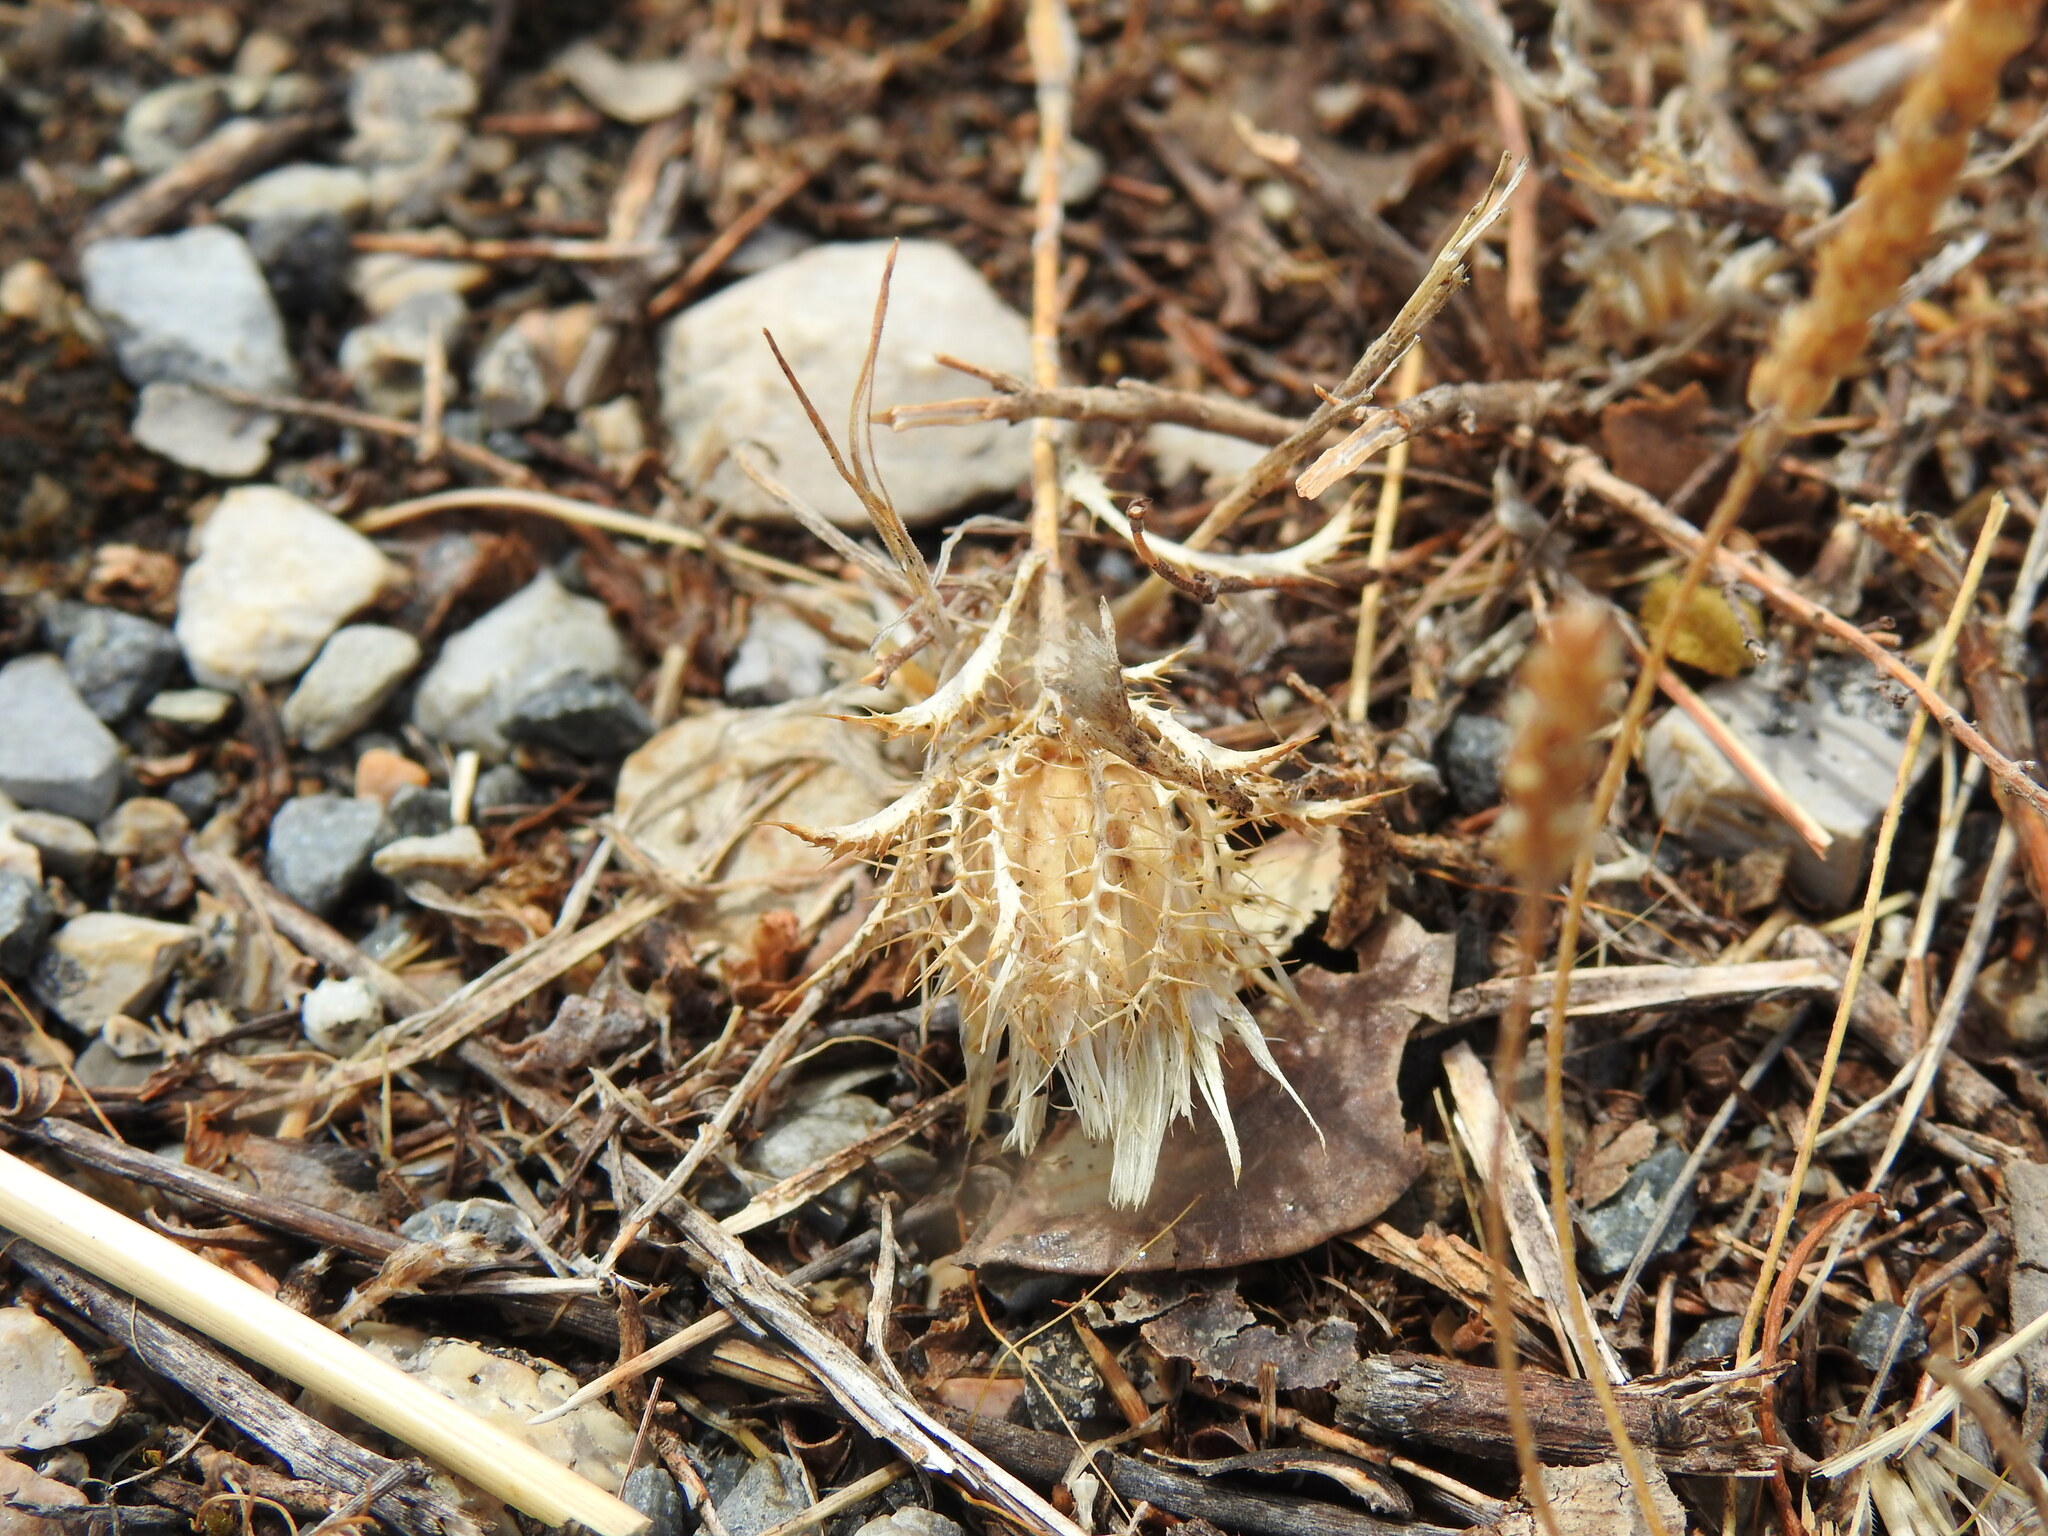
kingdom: Plantae
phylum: Tracheophyta
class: Magnoliopsida
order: Asterales
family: Asteraceae
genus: Atractylis
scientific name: Atractylis cancellata
